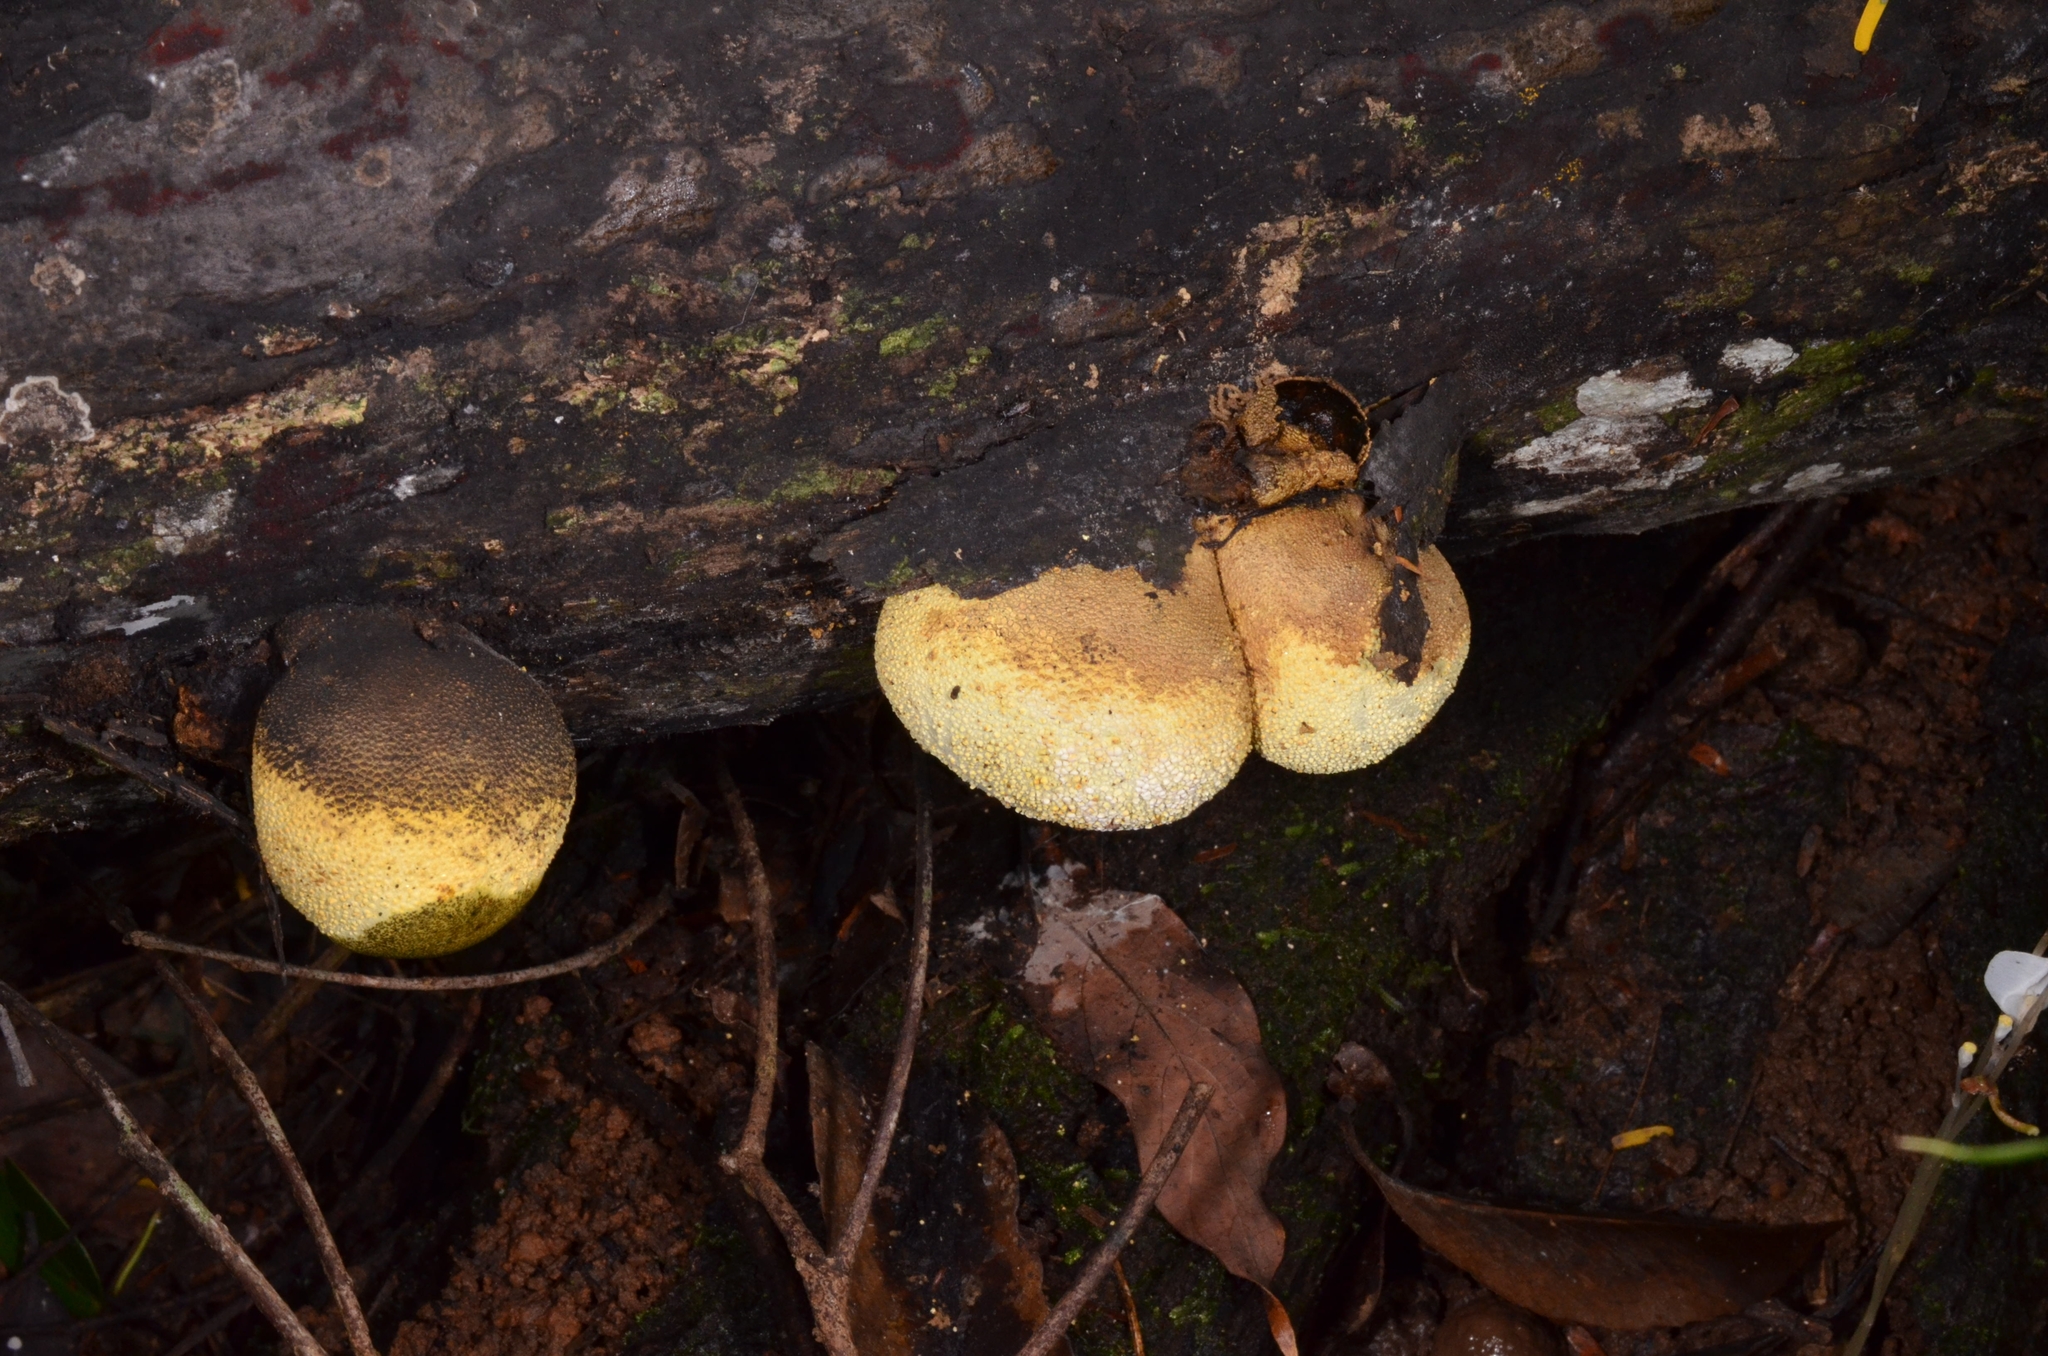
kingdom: Fungi
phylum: Ascomycota
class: Sordariomycetes
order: Xylariales
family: Xylariaceae
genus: Xylaria
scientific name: Xylaria compuncta
